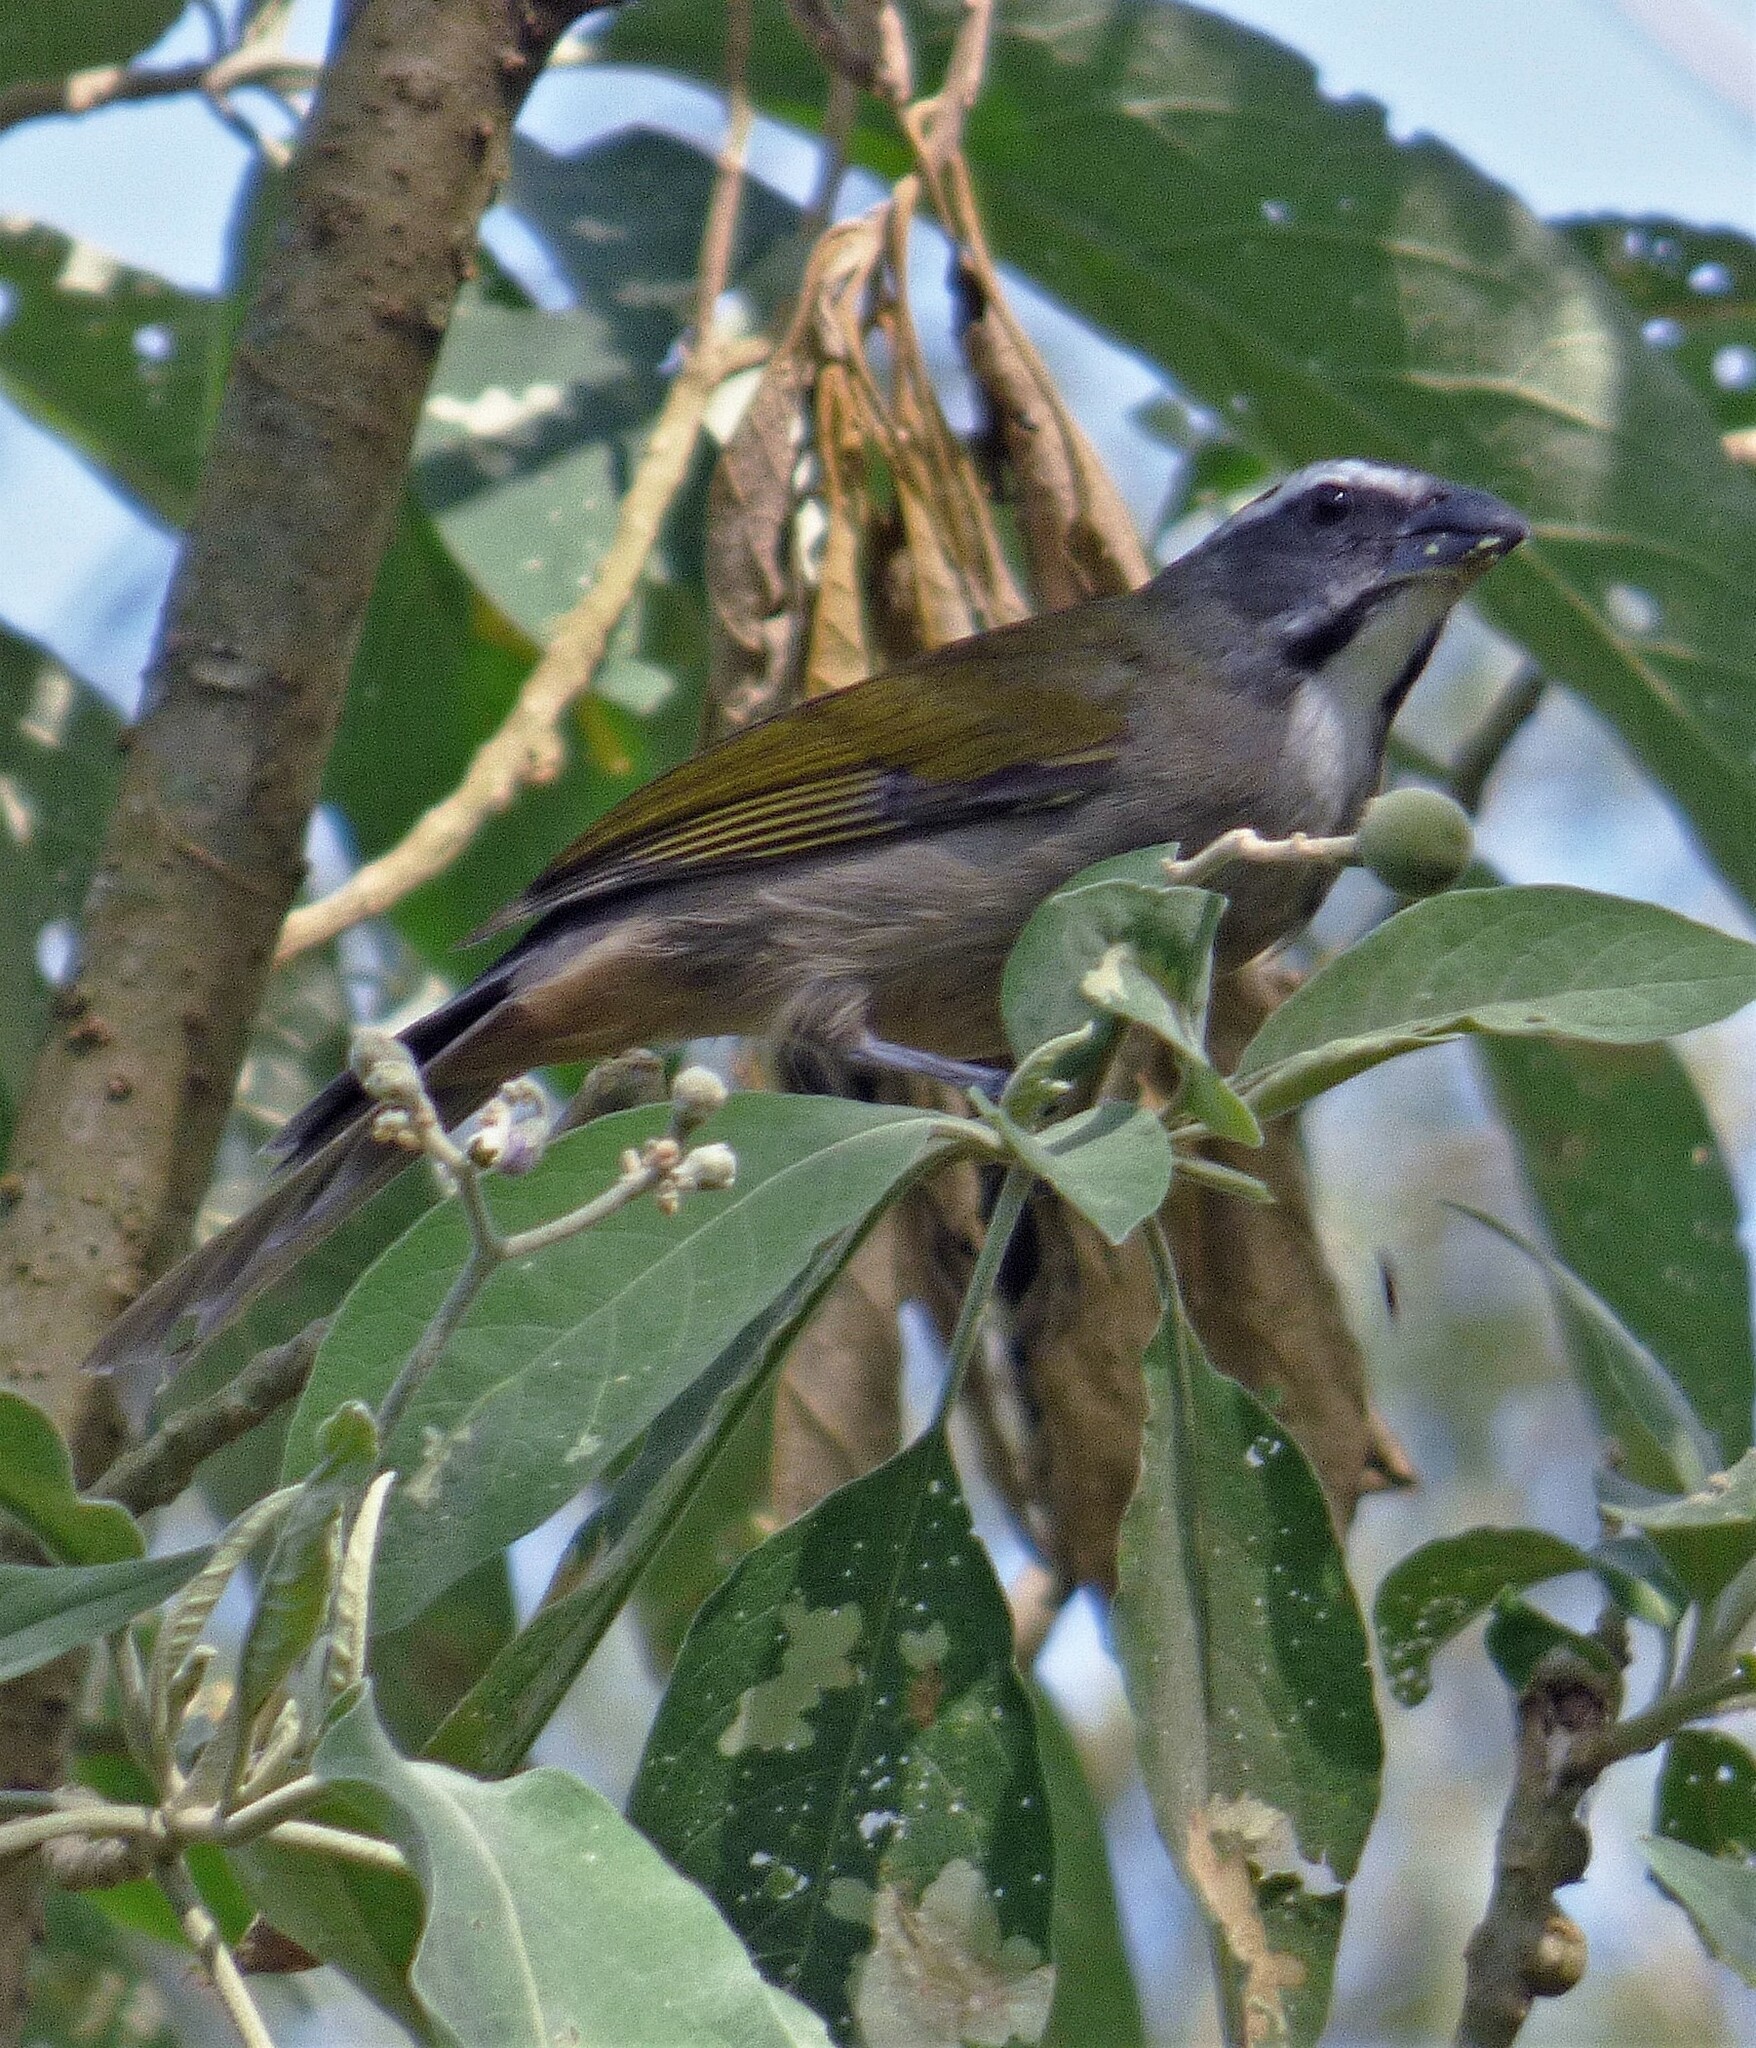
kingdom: Animalia
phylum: Chordata
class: Aves
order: Passeriformes
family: Thraupidae
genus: Saltator
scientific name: Saltator similis
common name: Green-winged saltator
